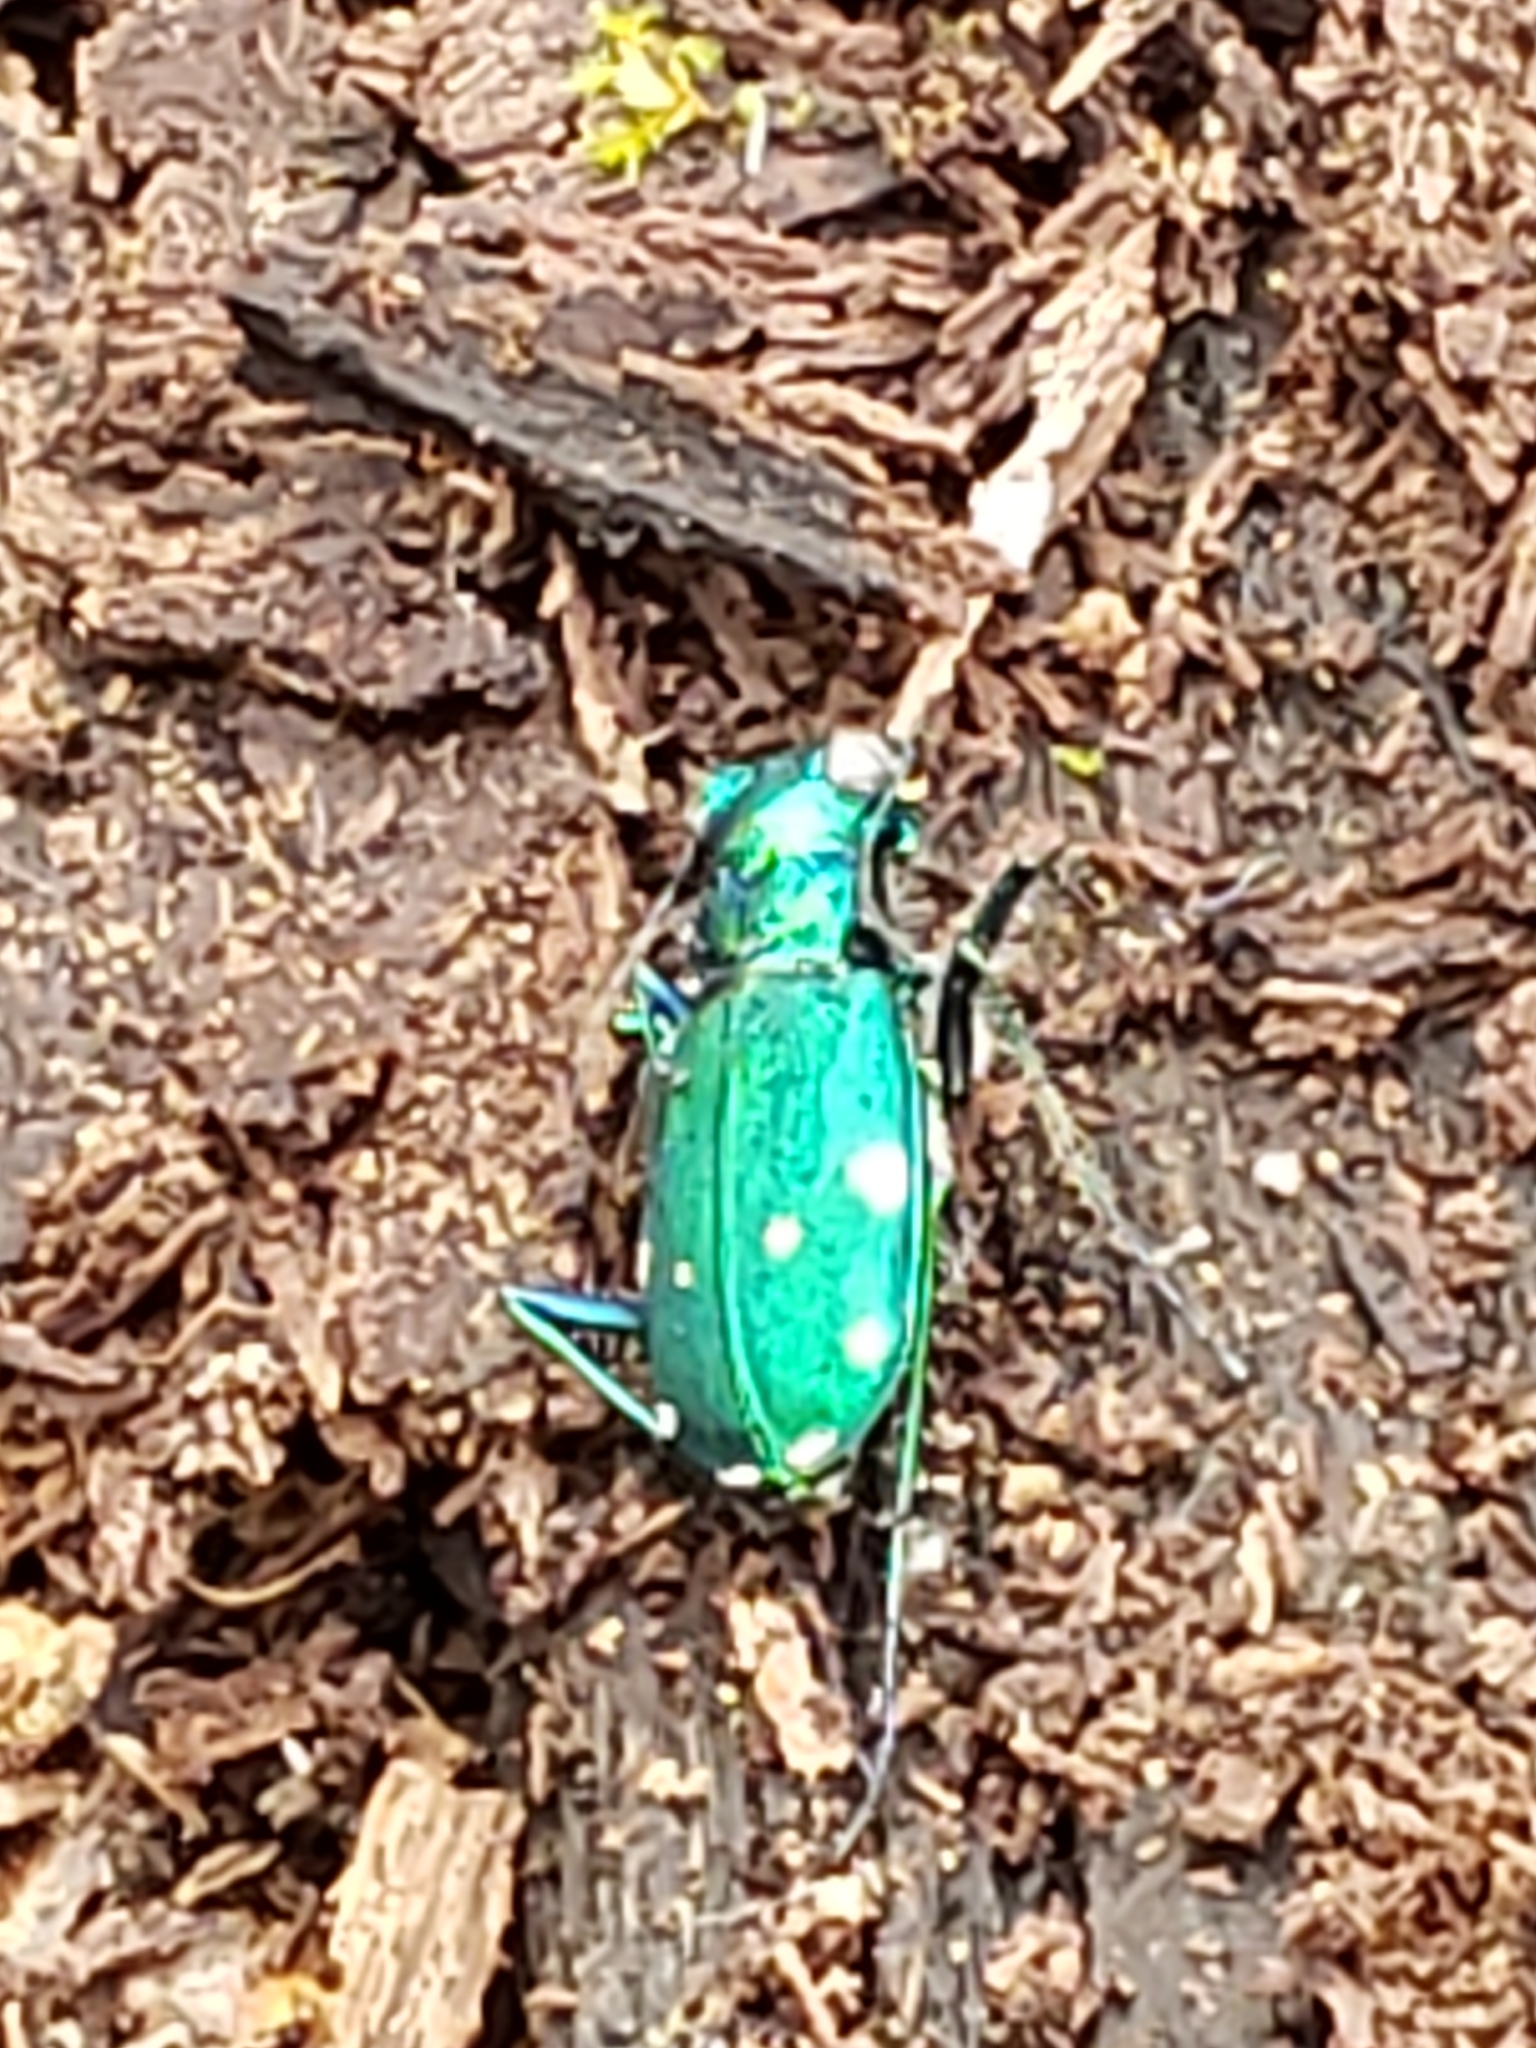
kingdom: Animalia
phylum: Arthropoda
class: Insecta
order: Coleoptera
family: Carabidae
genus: Cicindela
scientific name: Cicindela sexguttata
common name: Six-spotted tiger beetle
